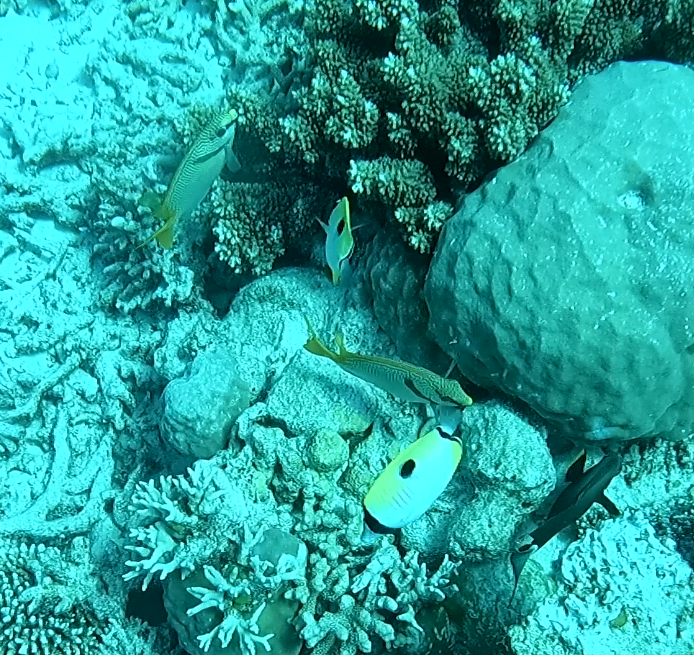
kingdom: Animalia
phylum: Chordata
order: Perciformes
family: Siganidae
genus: Siganus
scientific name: Siganus doliatus
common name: Barred spinefoot
